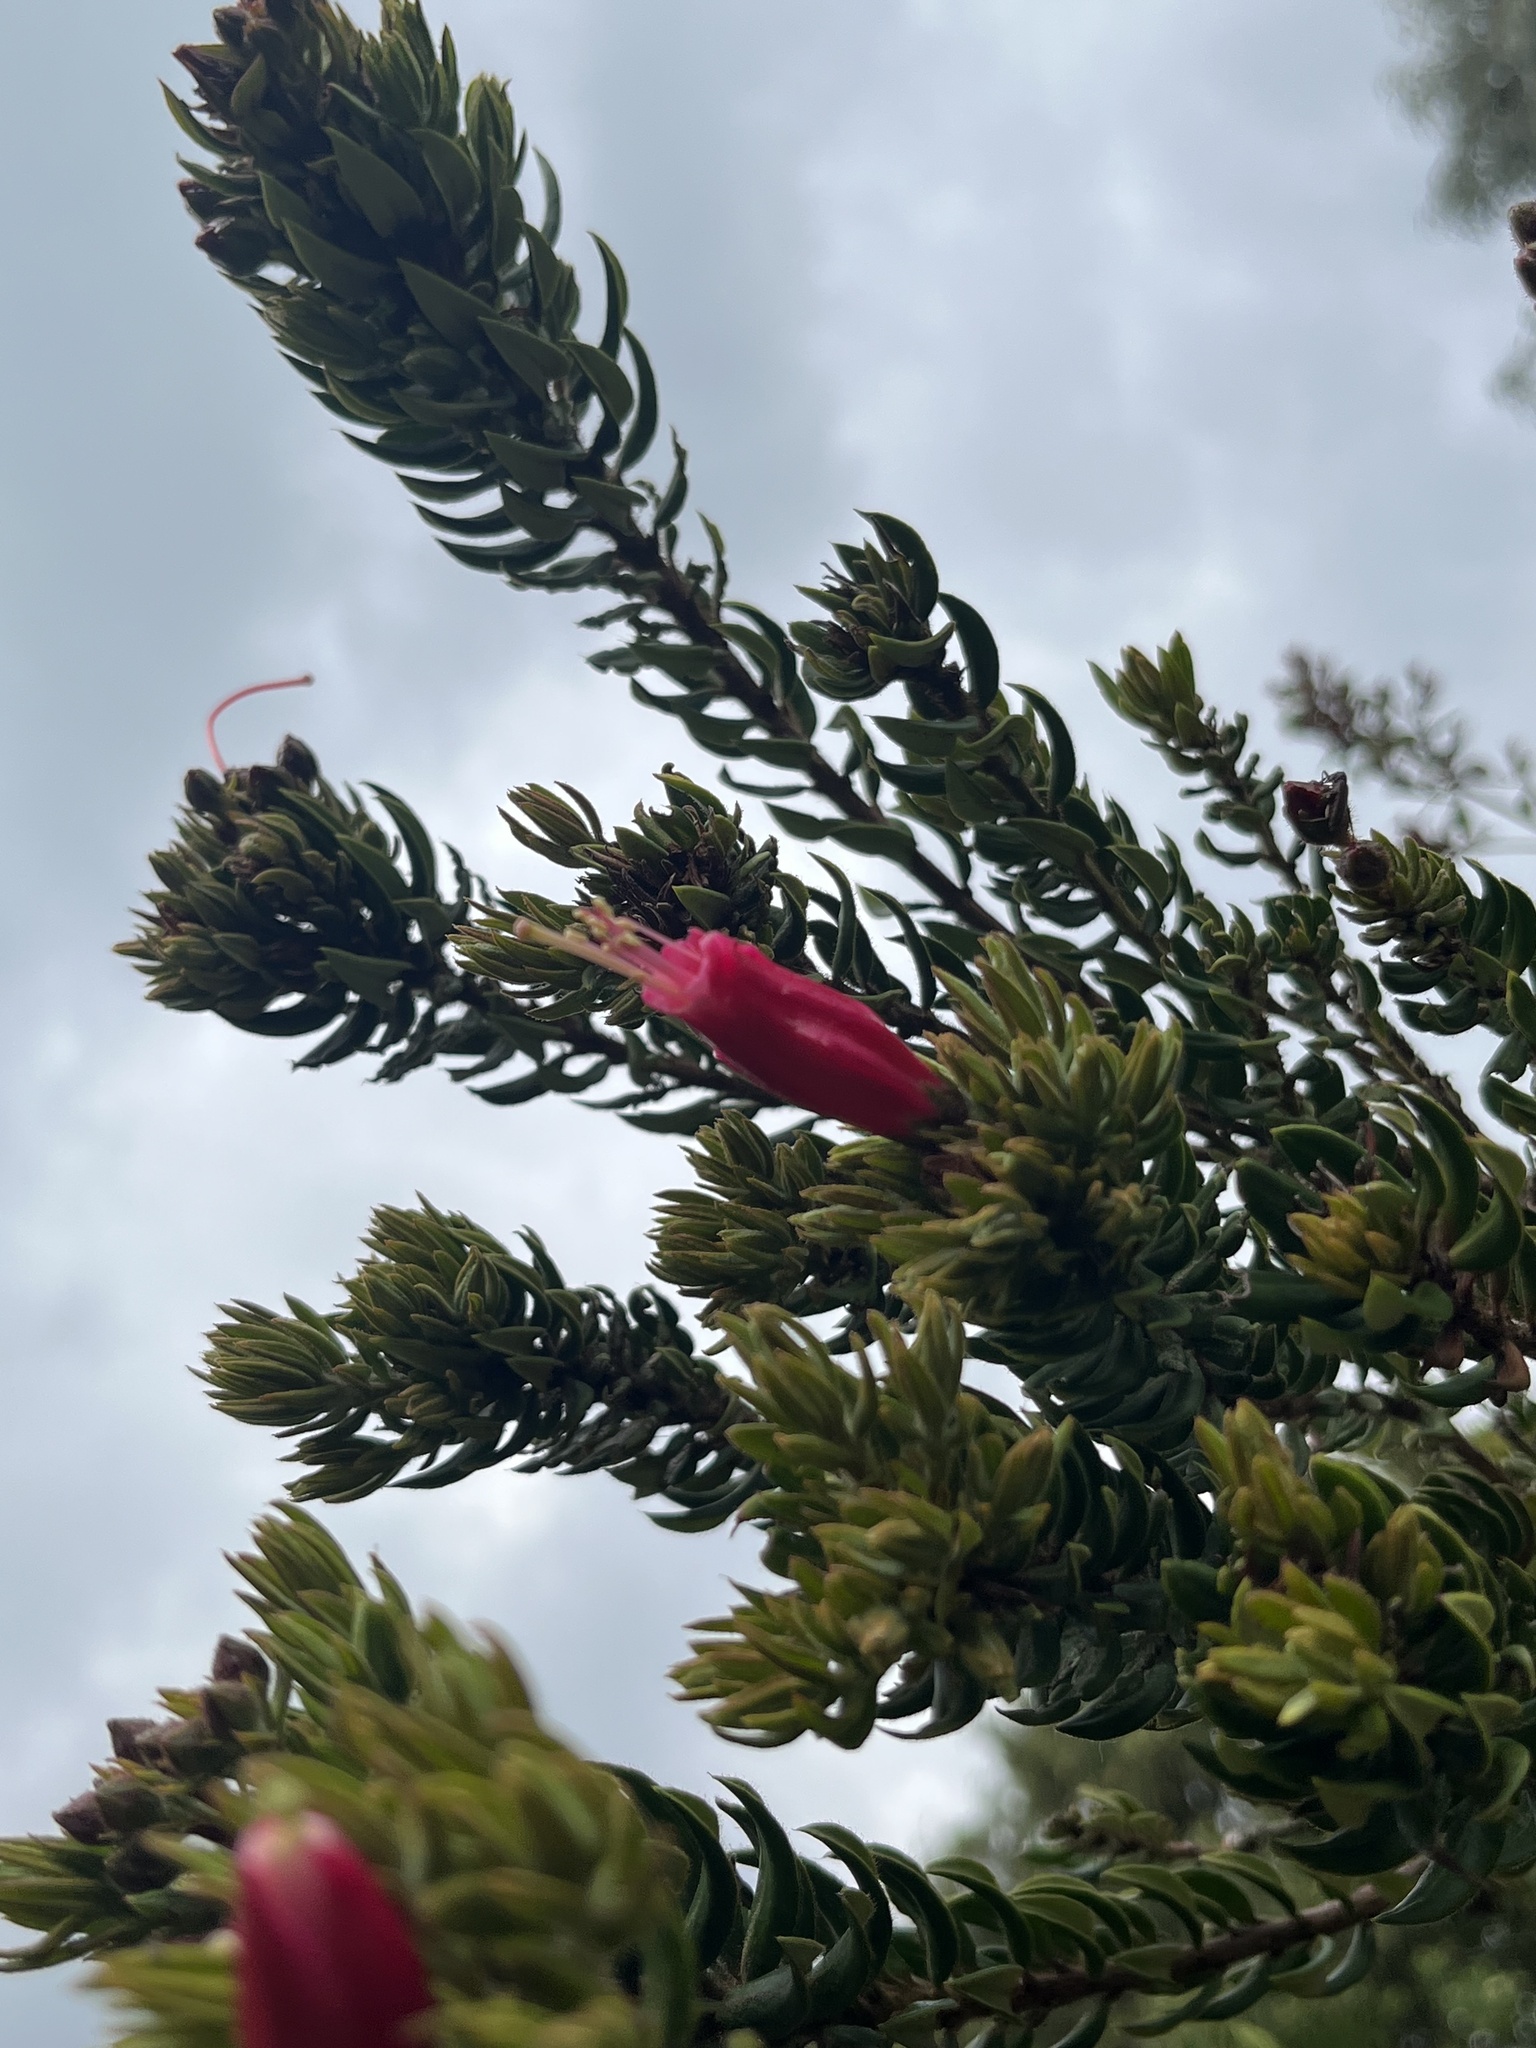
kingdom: Plantae
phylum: Tracheophyta
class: Magnoliopsida
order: Ericales
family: Ericaceae
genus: Bejaria
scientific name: Bejaria resinosa
